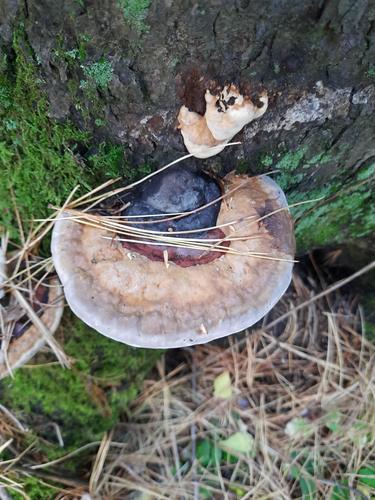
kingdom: Fungi
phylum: Basidiomycota
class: Agaricomycetes
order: Polyporales
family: Fomitopsidaceae
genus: Fomitopsis
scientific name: Fomitopsis pinicola
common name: Red-belted bracket
